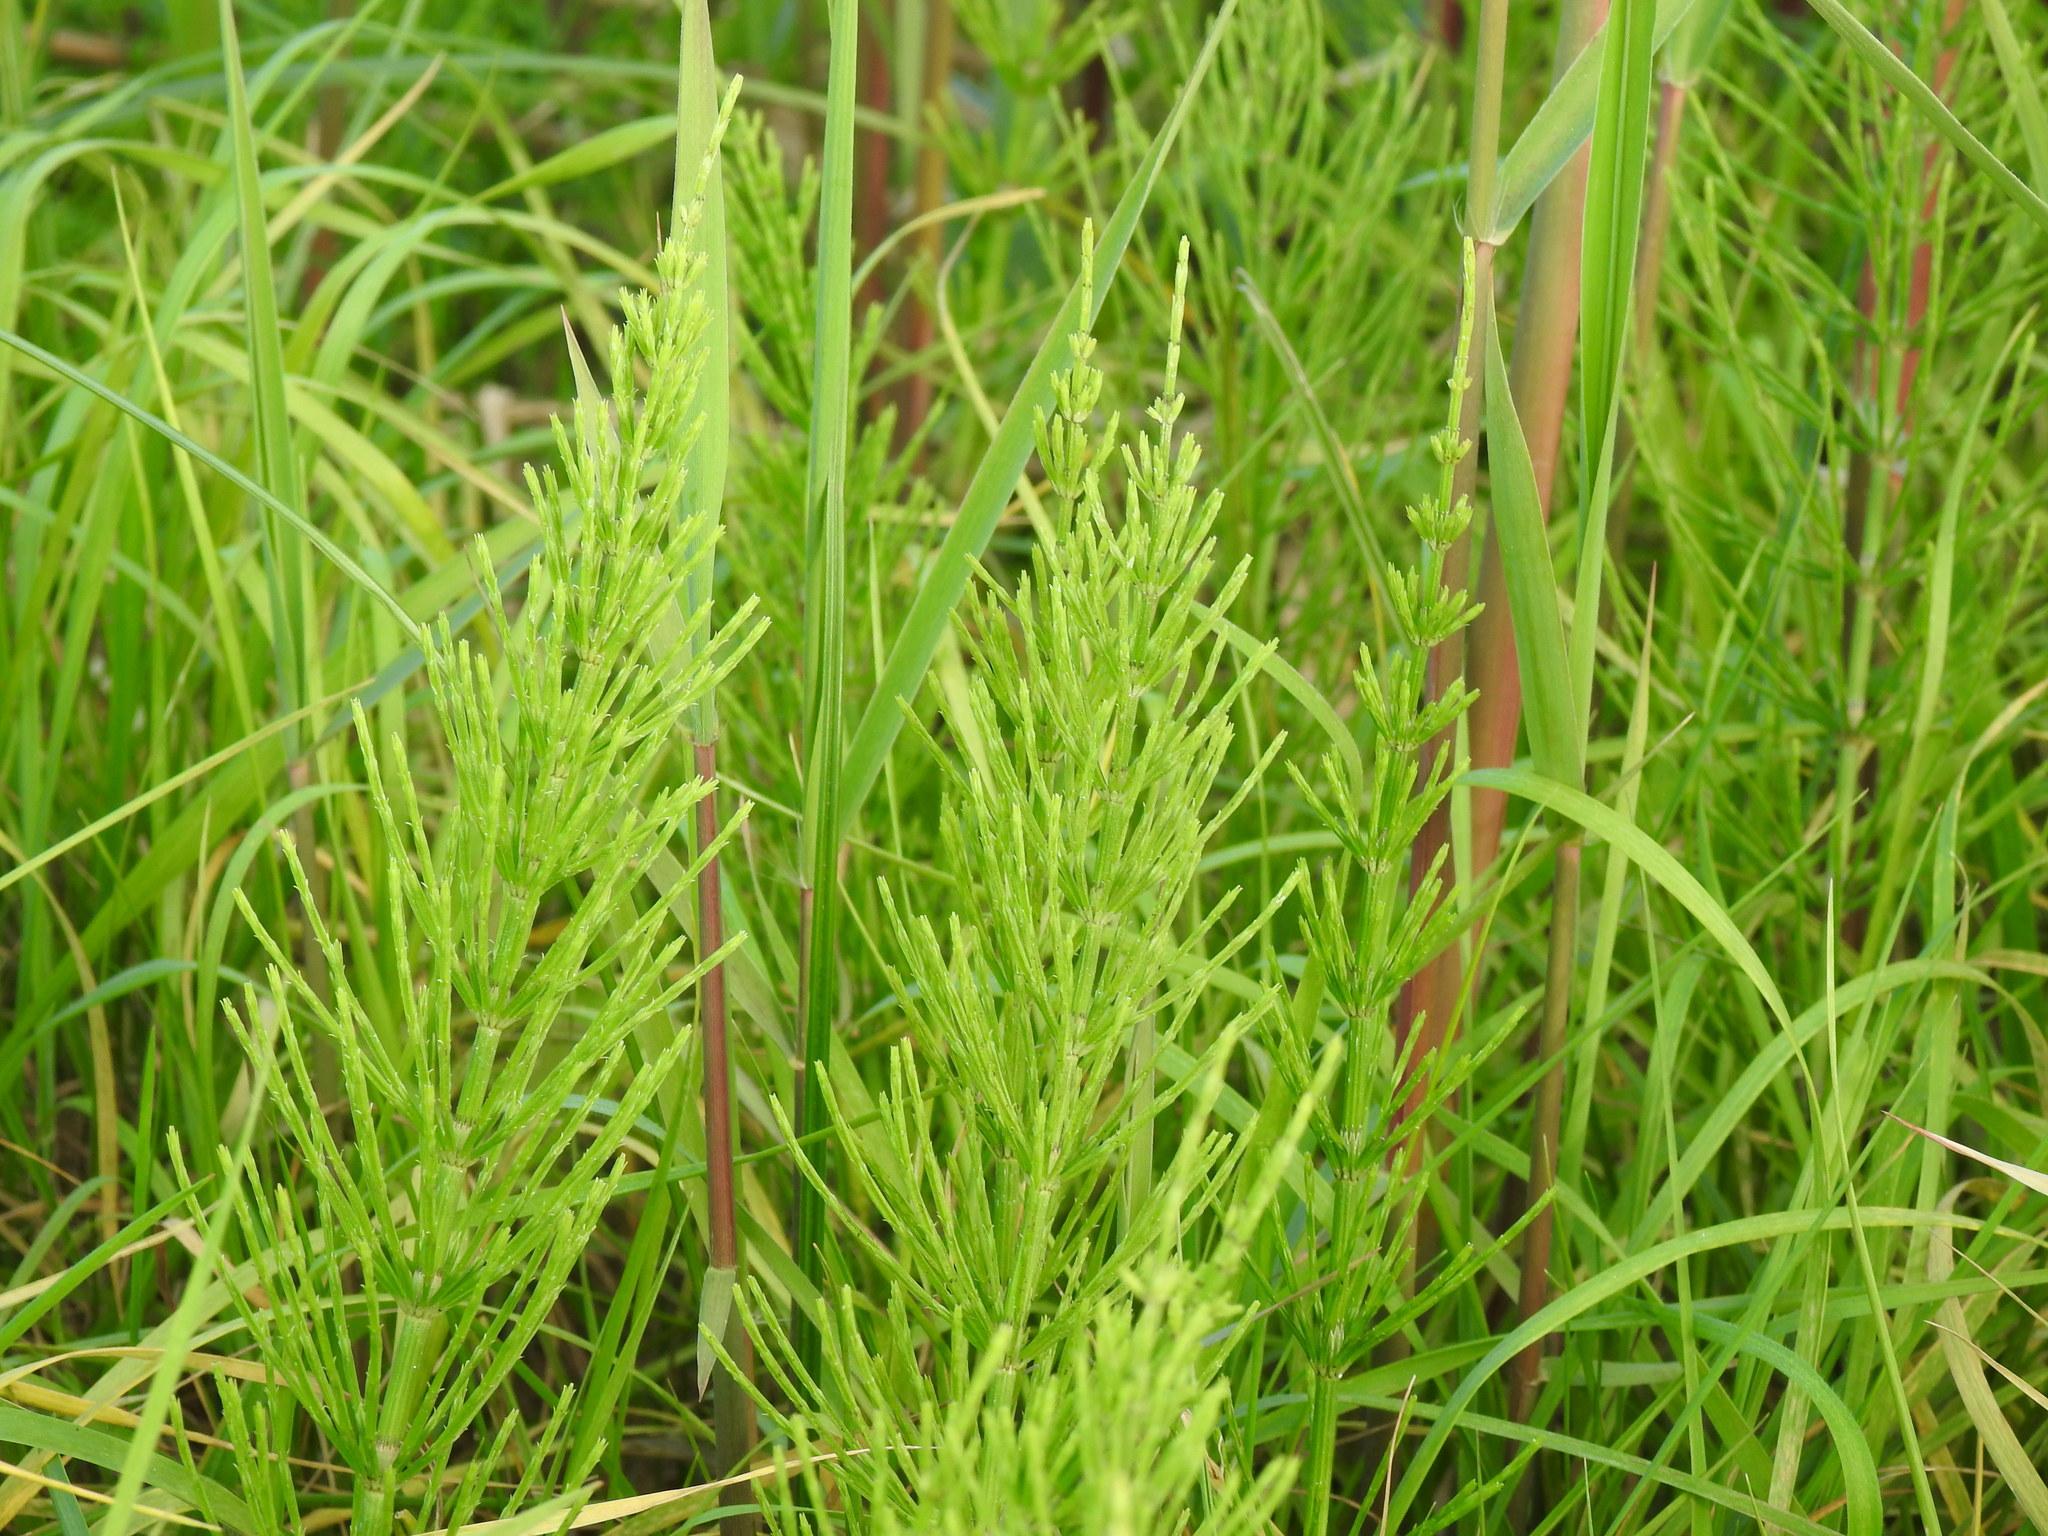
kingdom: Plantae
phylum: Tracheophyta
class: Polypodiopsida
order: Equisetales
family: Equisetaceae
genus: Equisetum
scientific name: Equisetum arvense
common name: Field horsetail
